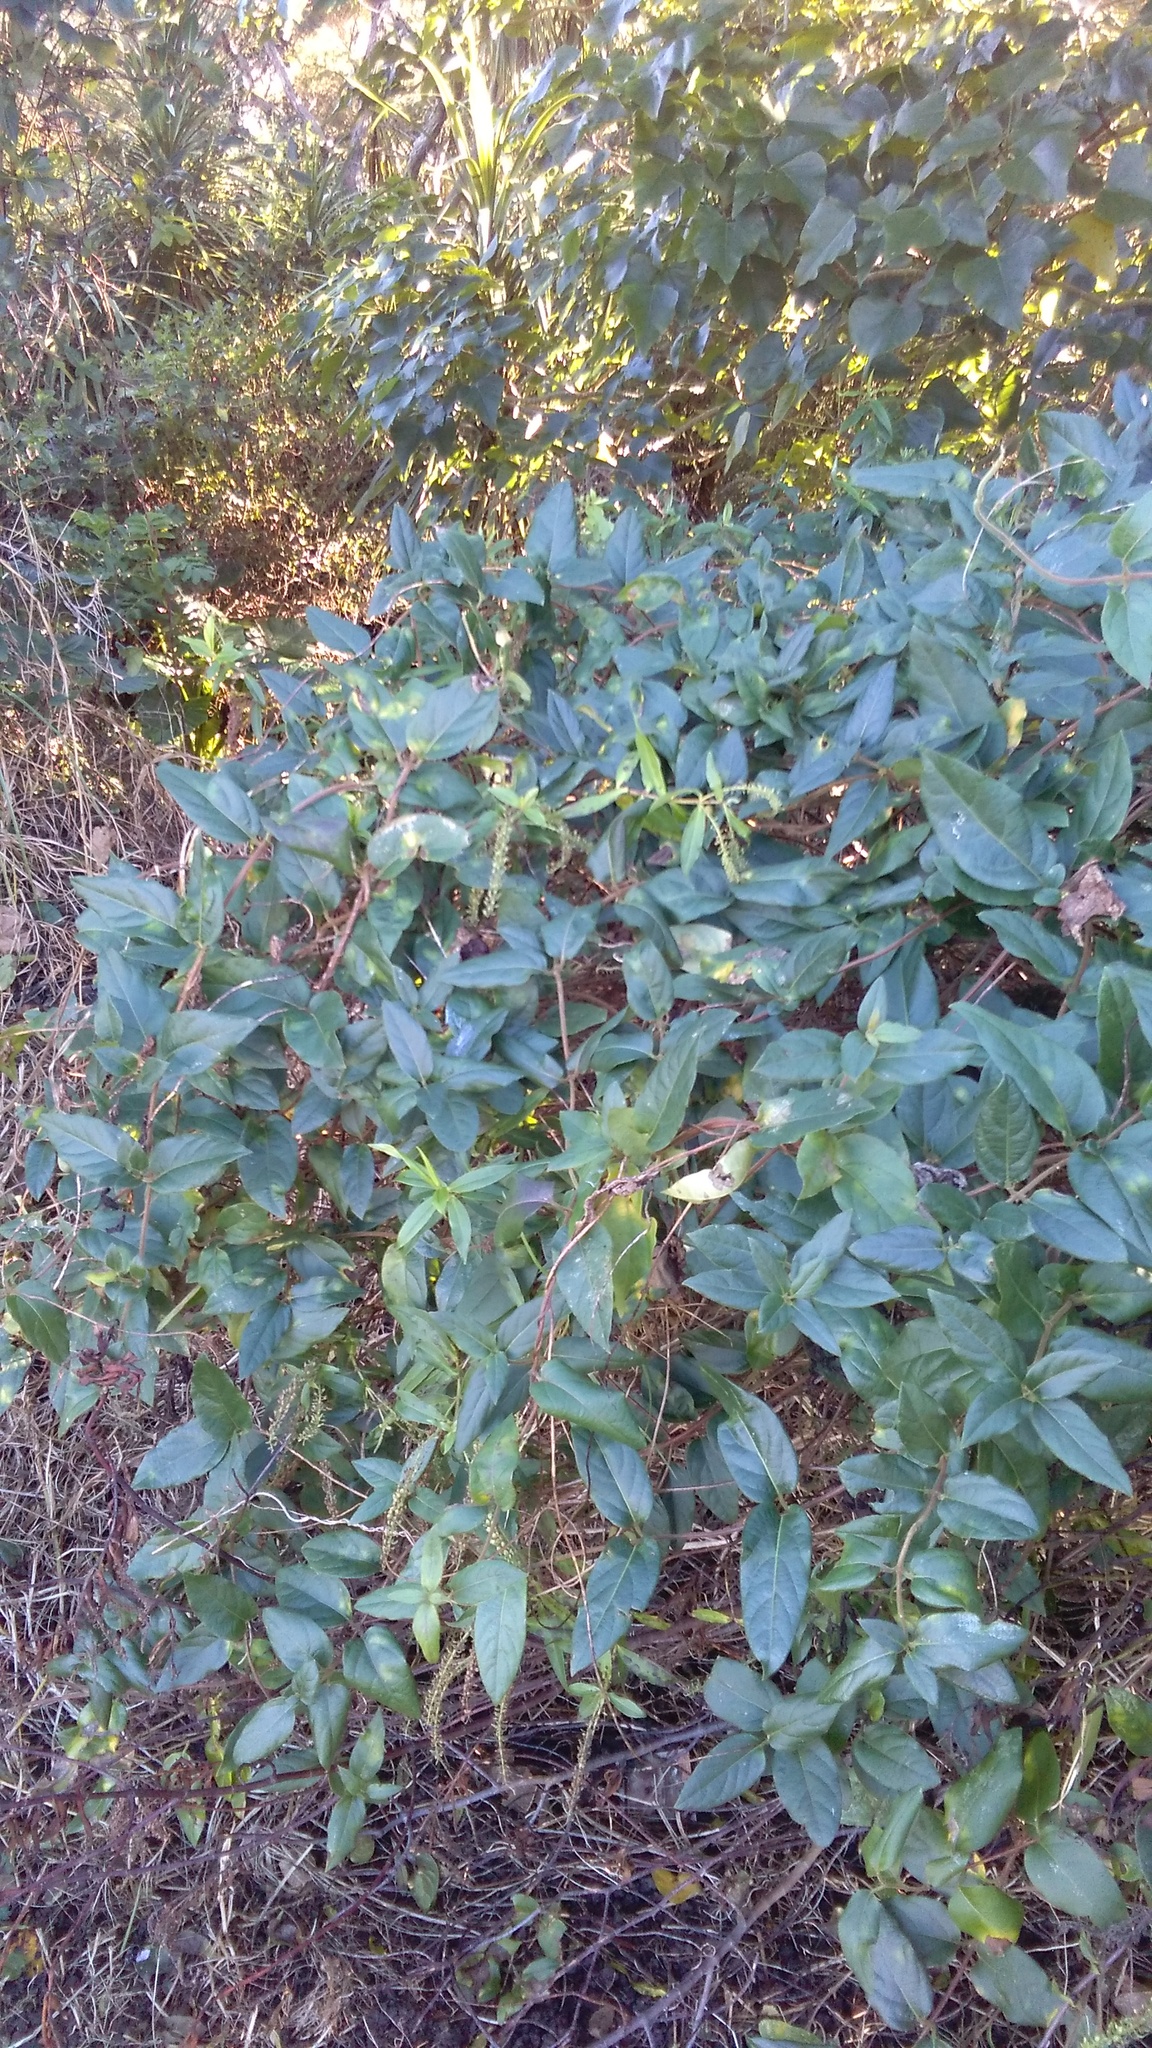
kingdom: Plantae
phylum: Tracheophyta
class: Magnoliopsida
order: Dipsacales
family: Caprifoliaceae
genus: Lonicera
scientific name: Lonicera japonica
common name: Japanese honeysuckle
